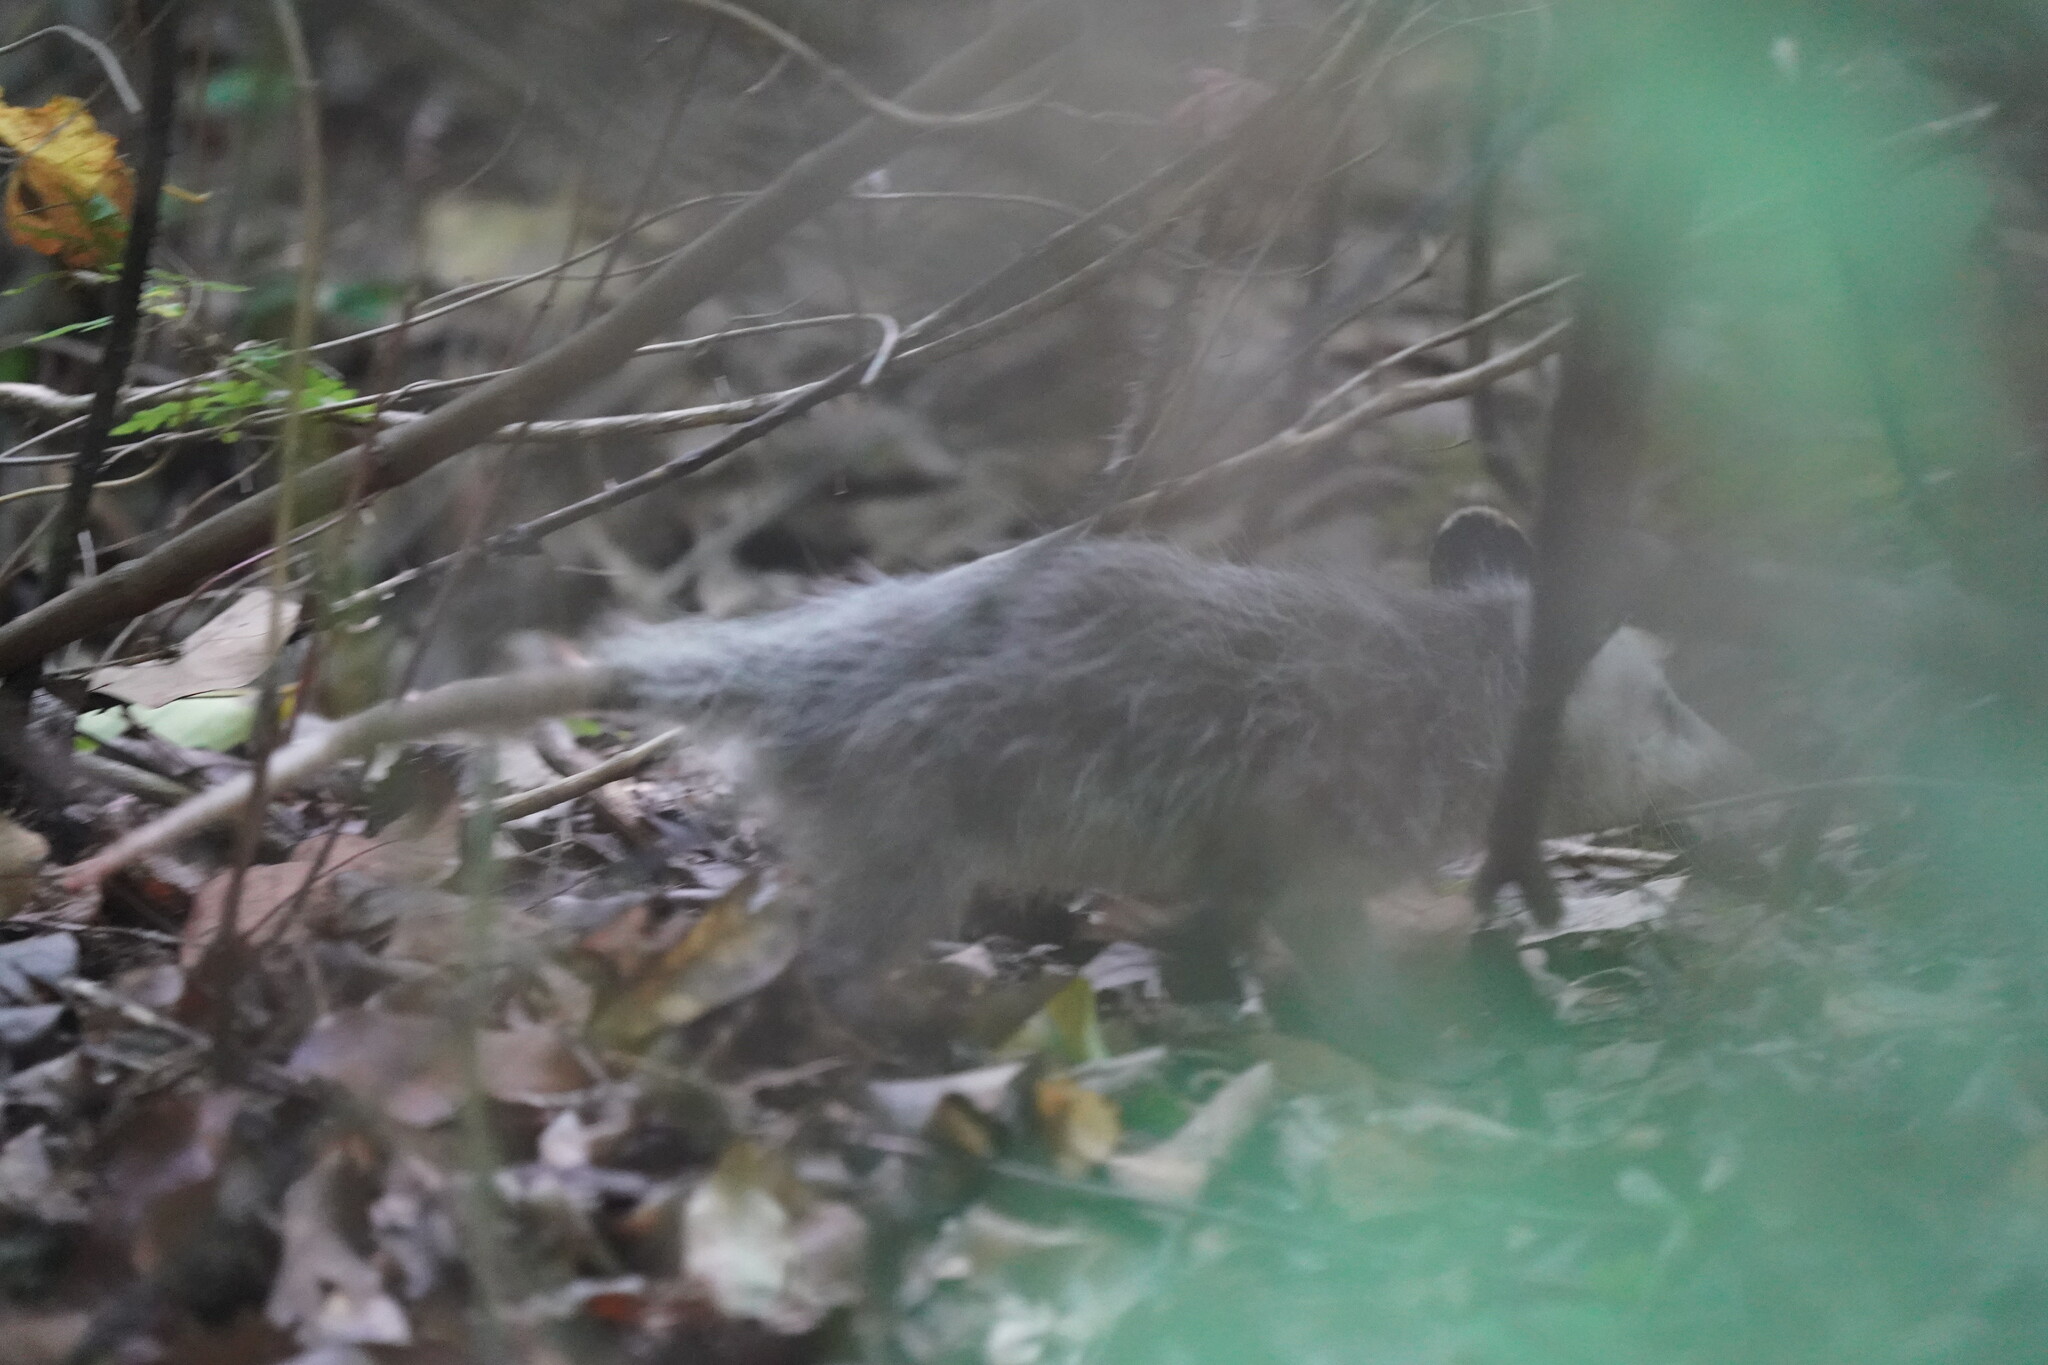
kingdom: Animalia
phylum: Chordata
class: Mammalia
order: Didelphimorphia
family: Didelphidae
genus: Didelphis
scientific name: Didelphis virginiana
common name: Virginia opossum
